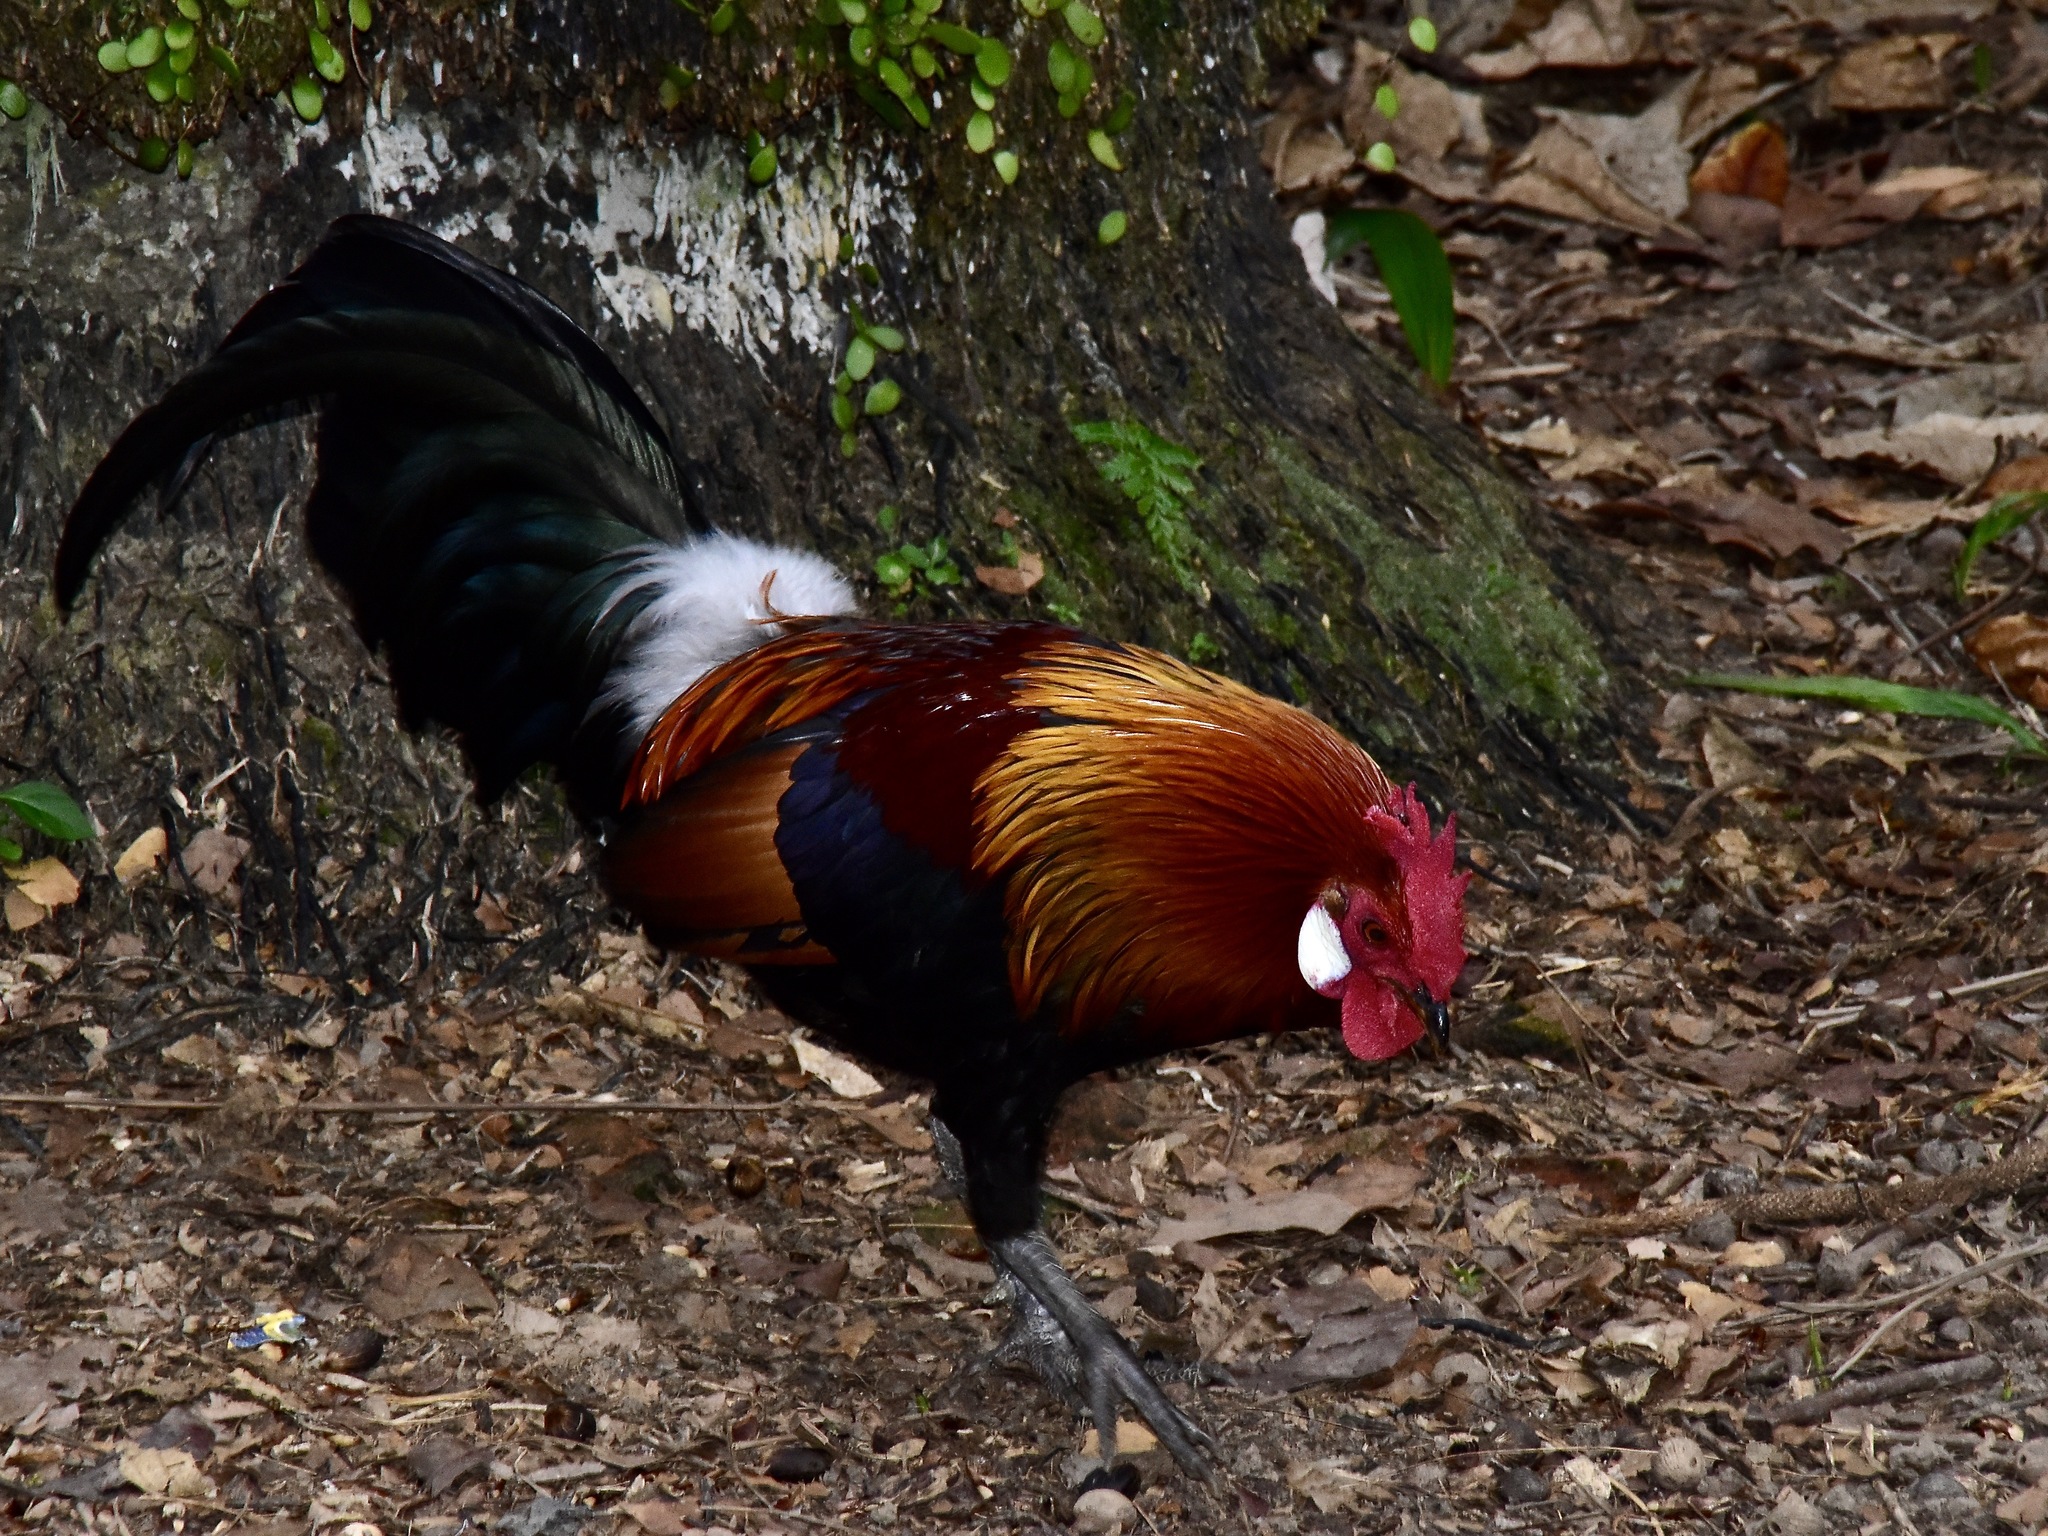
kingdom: Animalia
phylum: Chordata
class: Aves
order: Galliformes
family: Phasianidae
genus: Gallus
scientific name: Gallus gallus
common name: Red junglefowl
